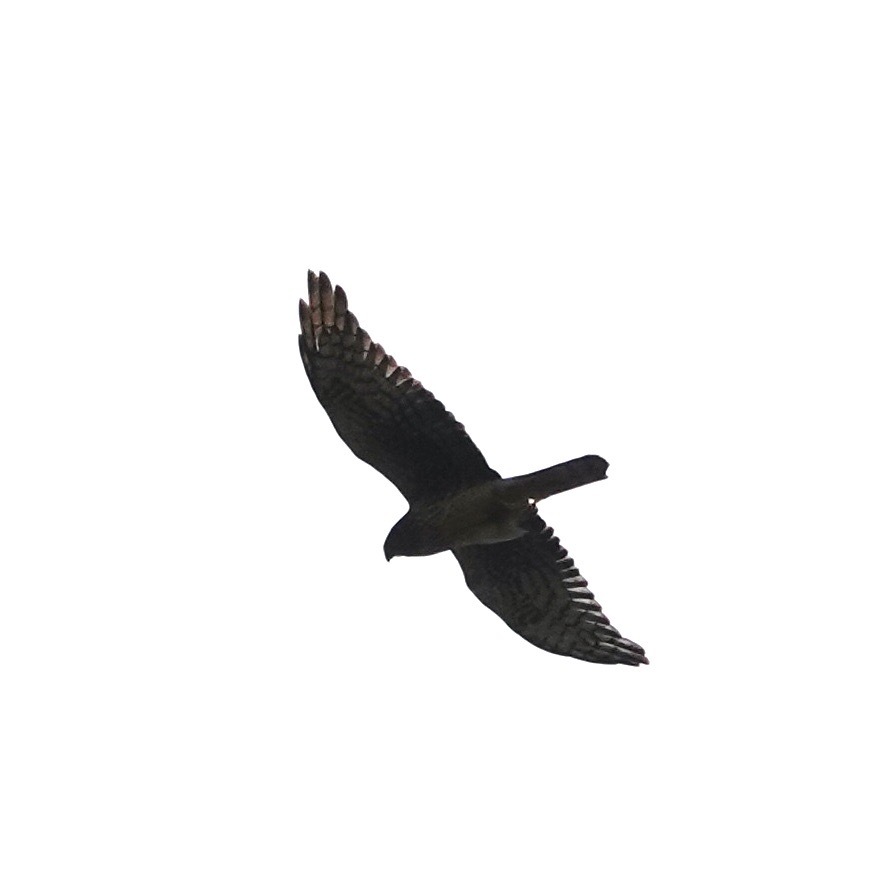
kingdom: Animalia
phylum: Chordata
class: Aves
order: Accipitriformes
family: Accipitridae
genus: Circus
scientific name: Circus cyaneus
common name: Hen harrier
